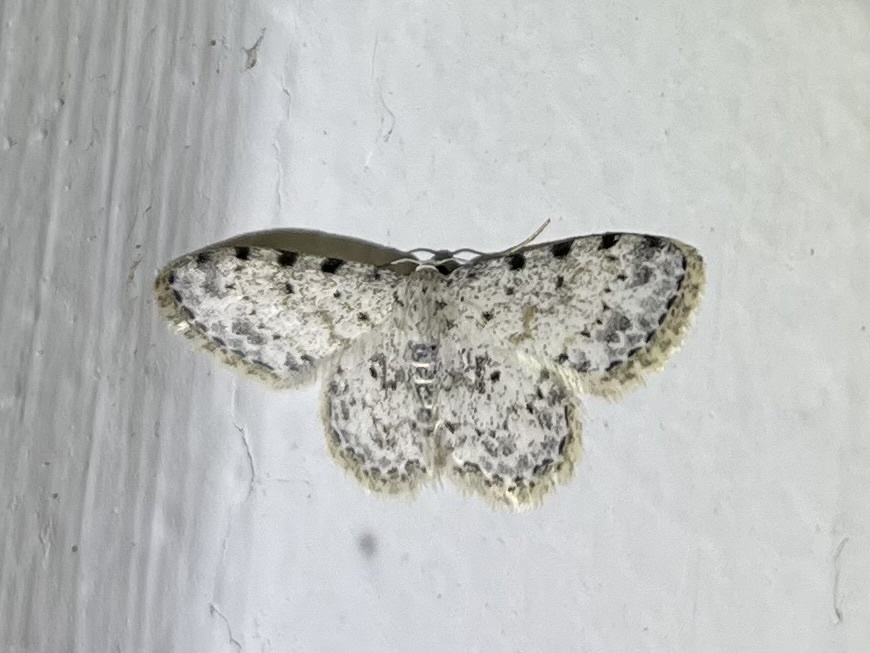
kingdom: Animalia
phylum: Arthropoda
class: Insecta
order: Lepidoptera
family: Geometridae
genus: Scopula
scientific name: Scopula nigrinotata
